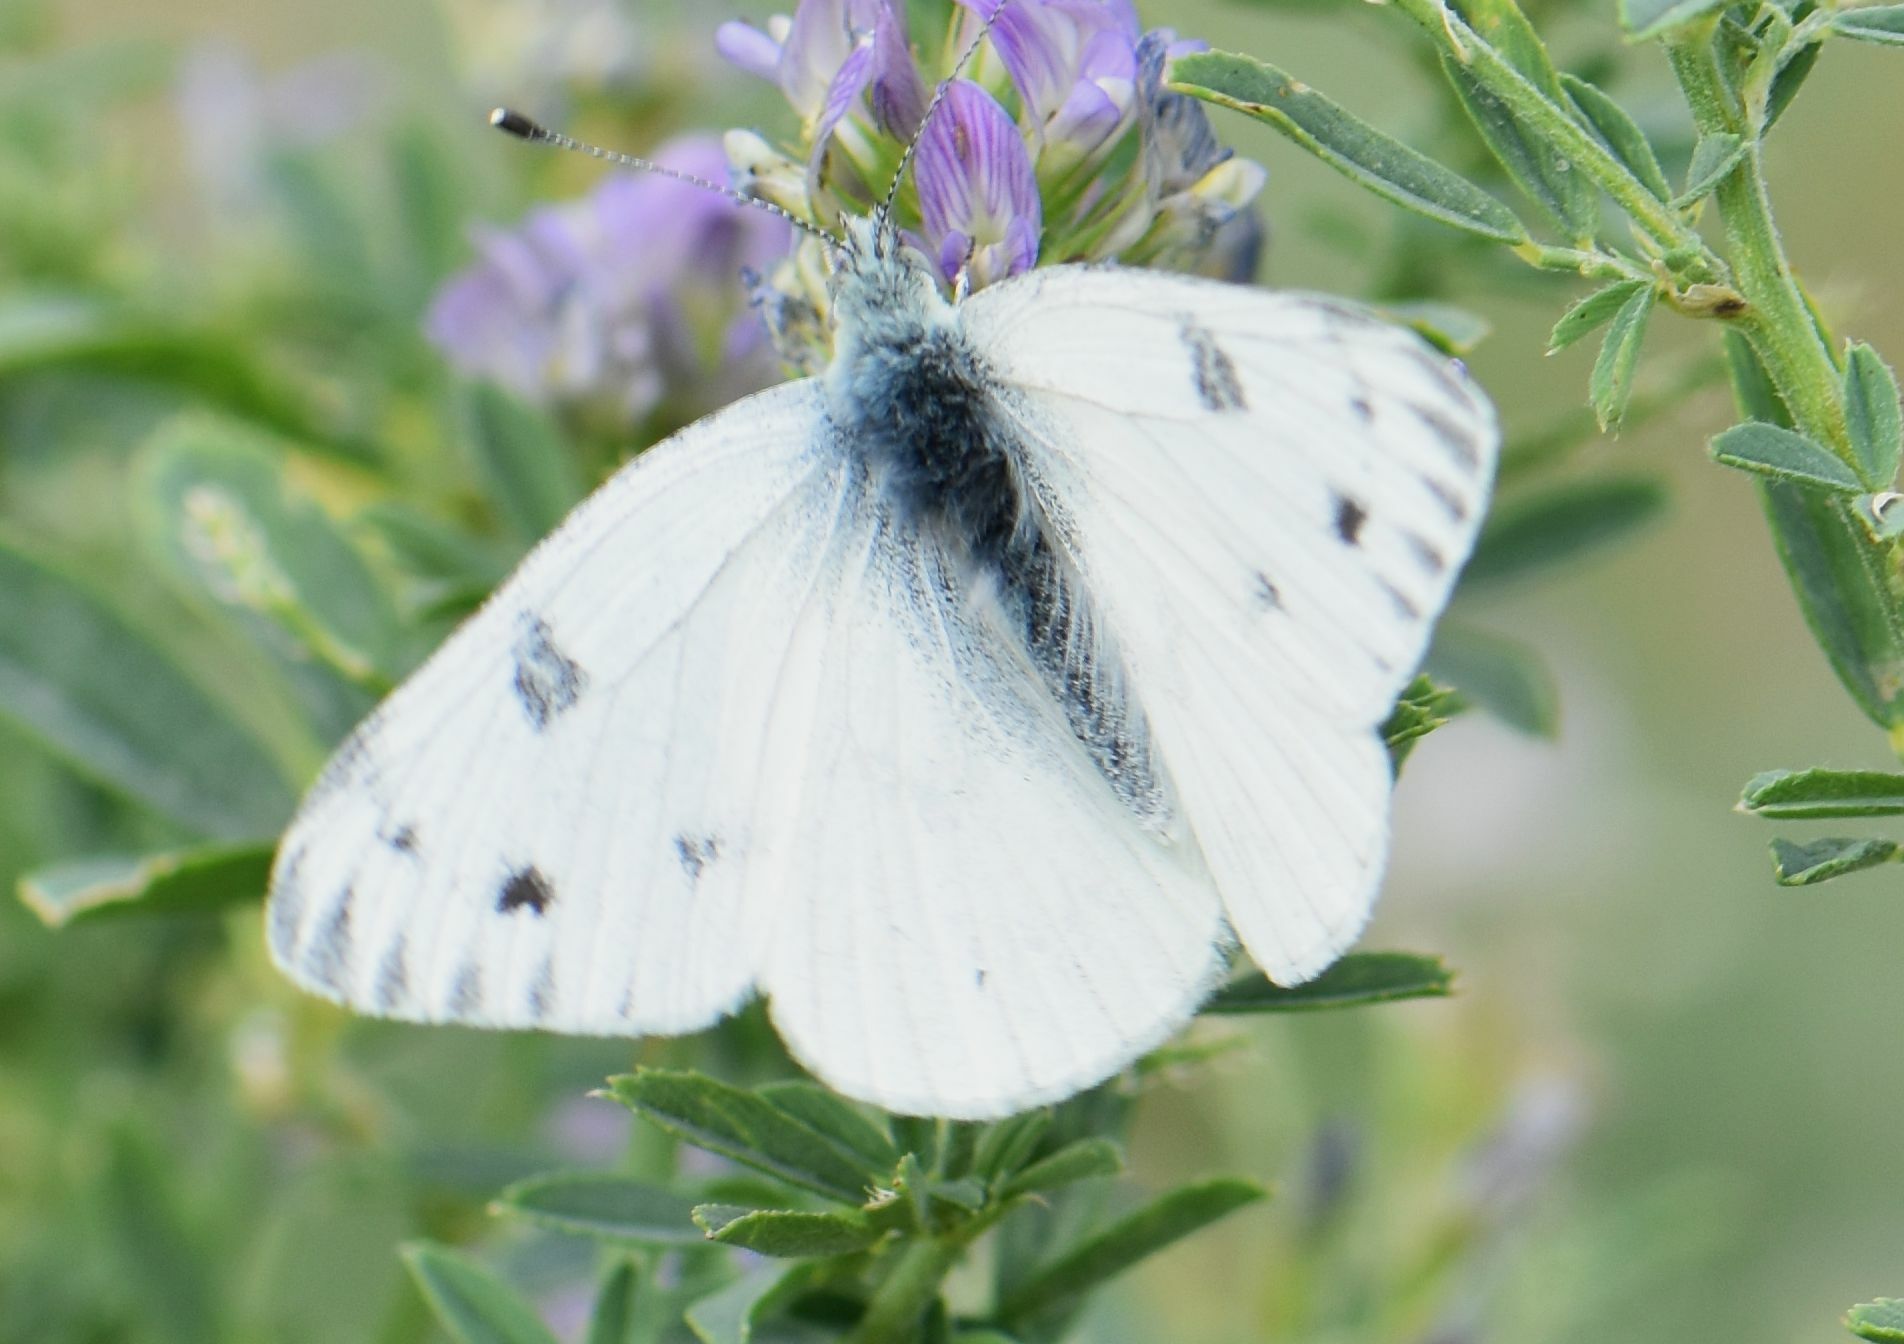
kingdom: Animalia
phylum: Arthropoda
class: Insecta
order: Lepidoptera
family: Pieridae
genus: Pontia
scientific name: Pontia occidentalis
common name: Western white
